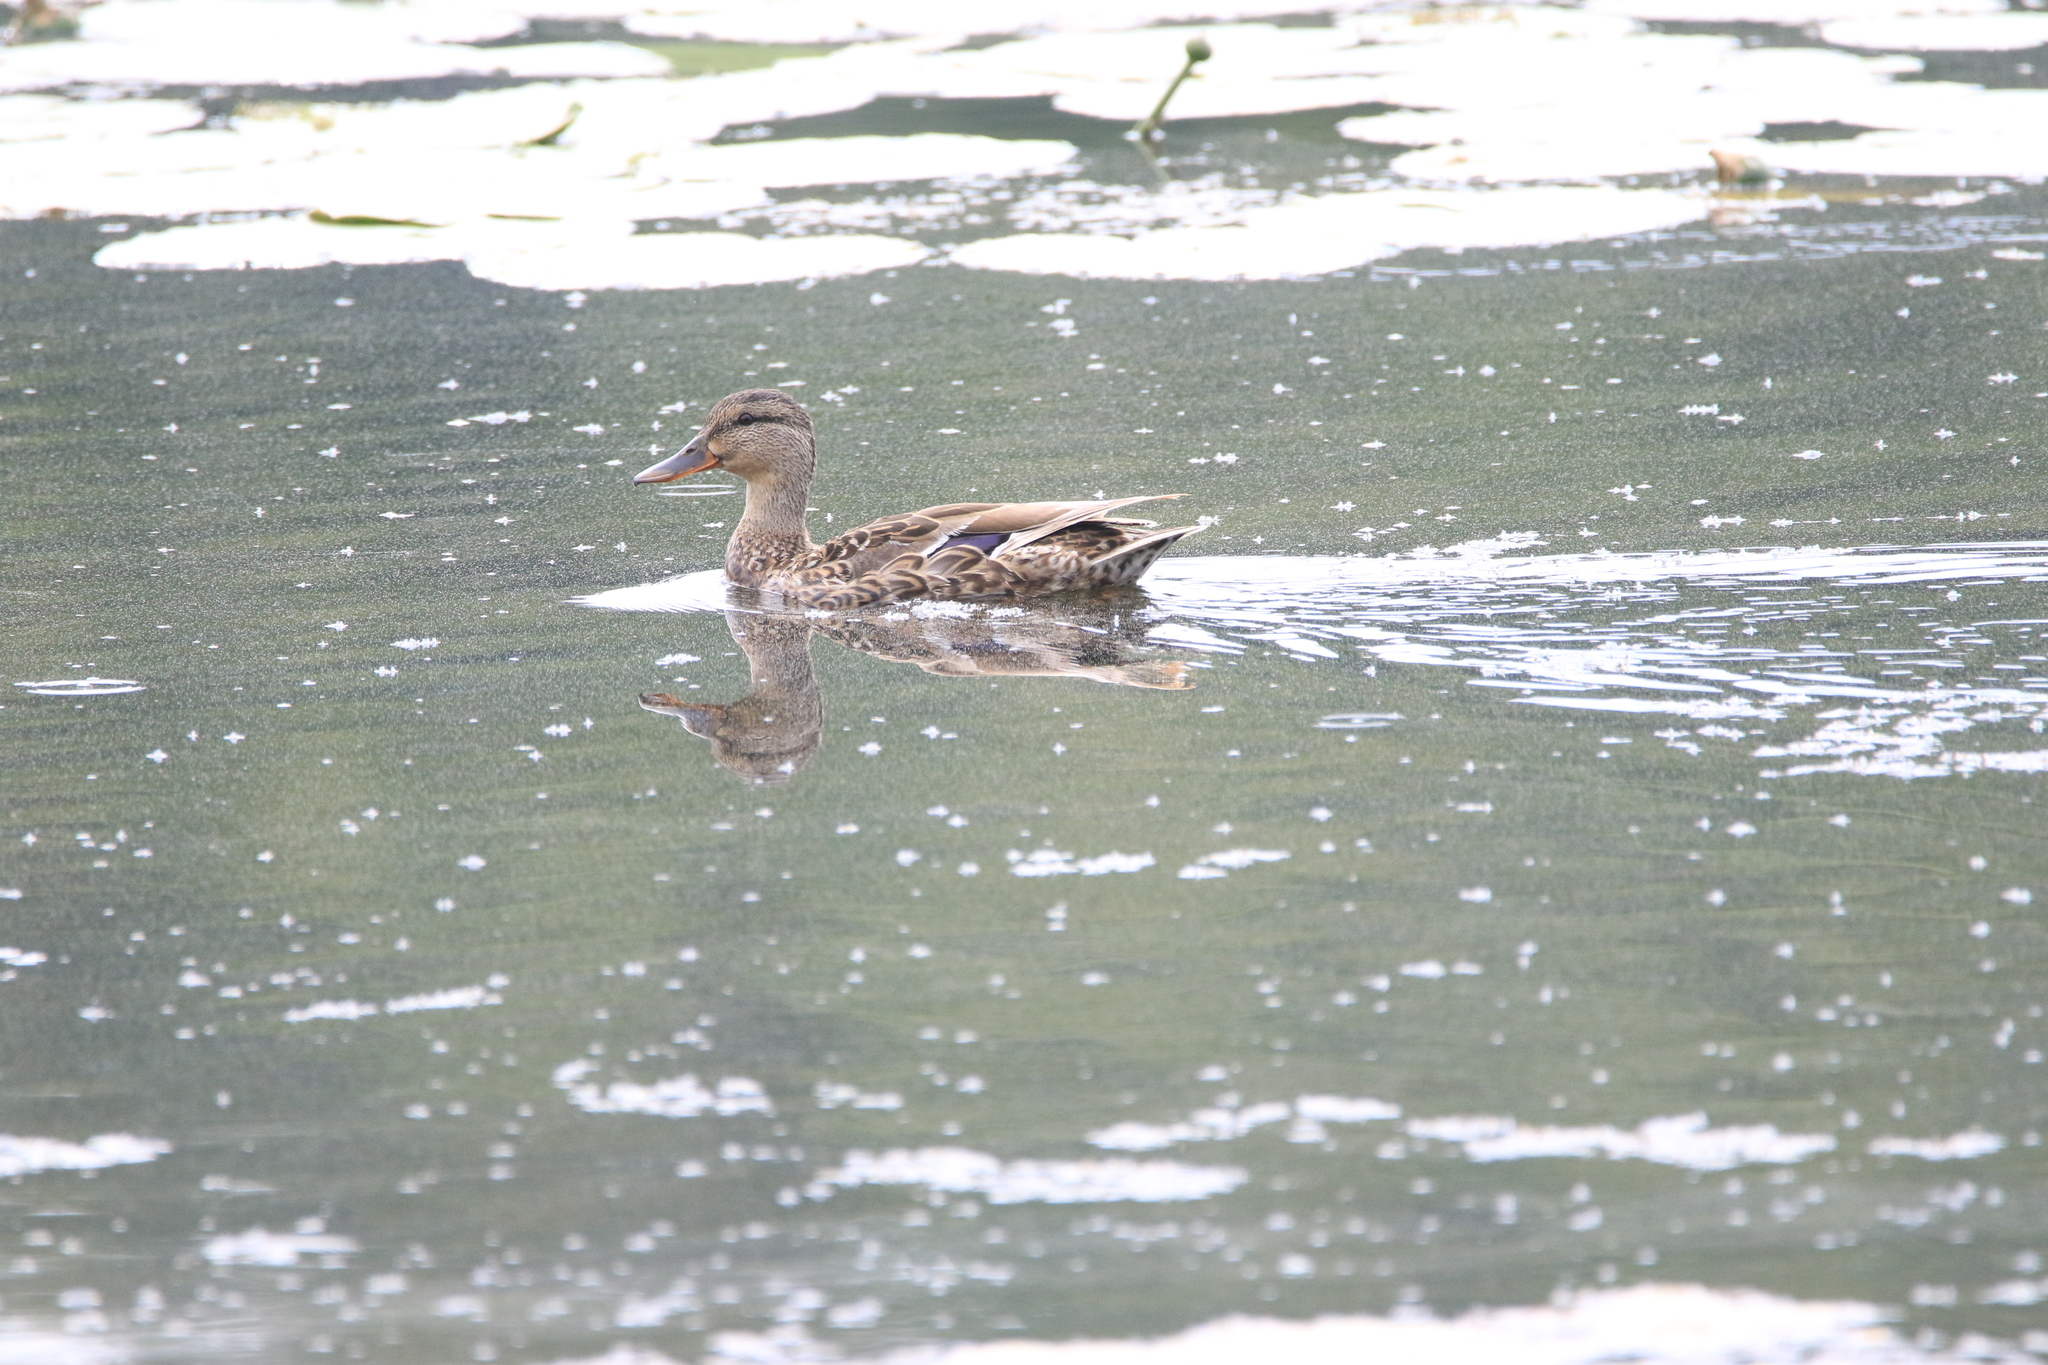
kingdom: Animalia
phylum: Chordata
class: Aves
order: Anseriformes
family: Anatidae
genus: Anas
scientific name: Anas platyrhynchos
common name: Mallard
